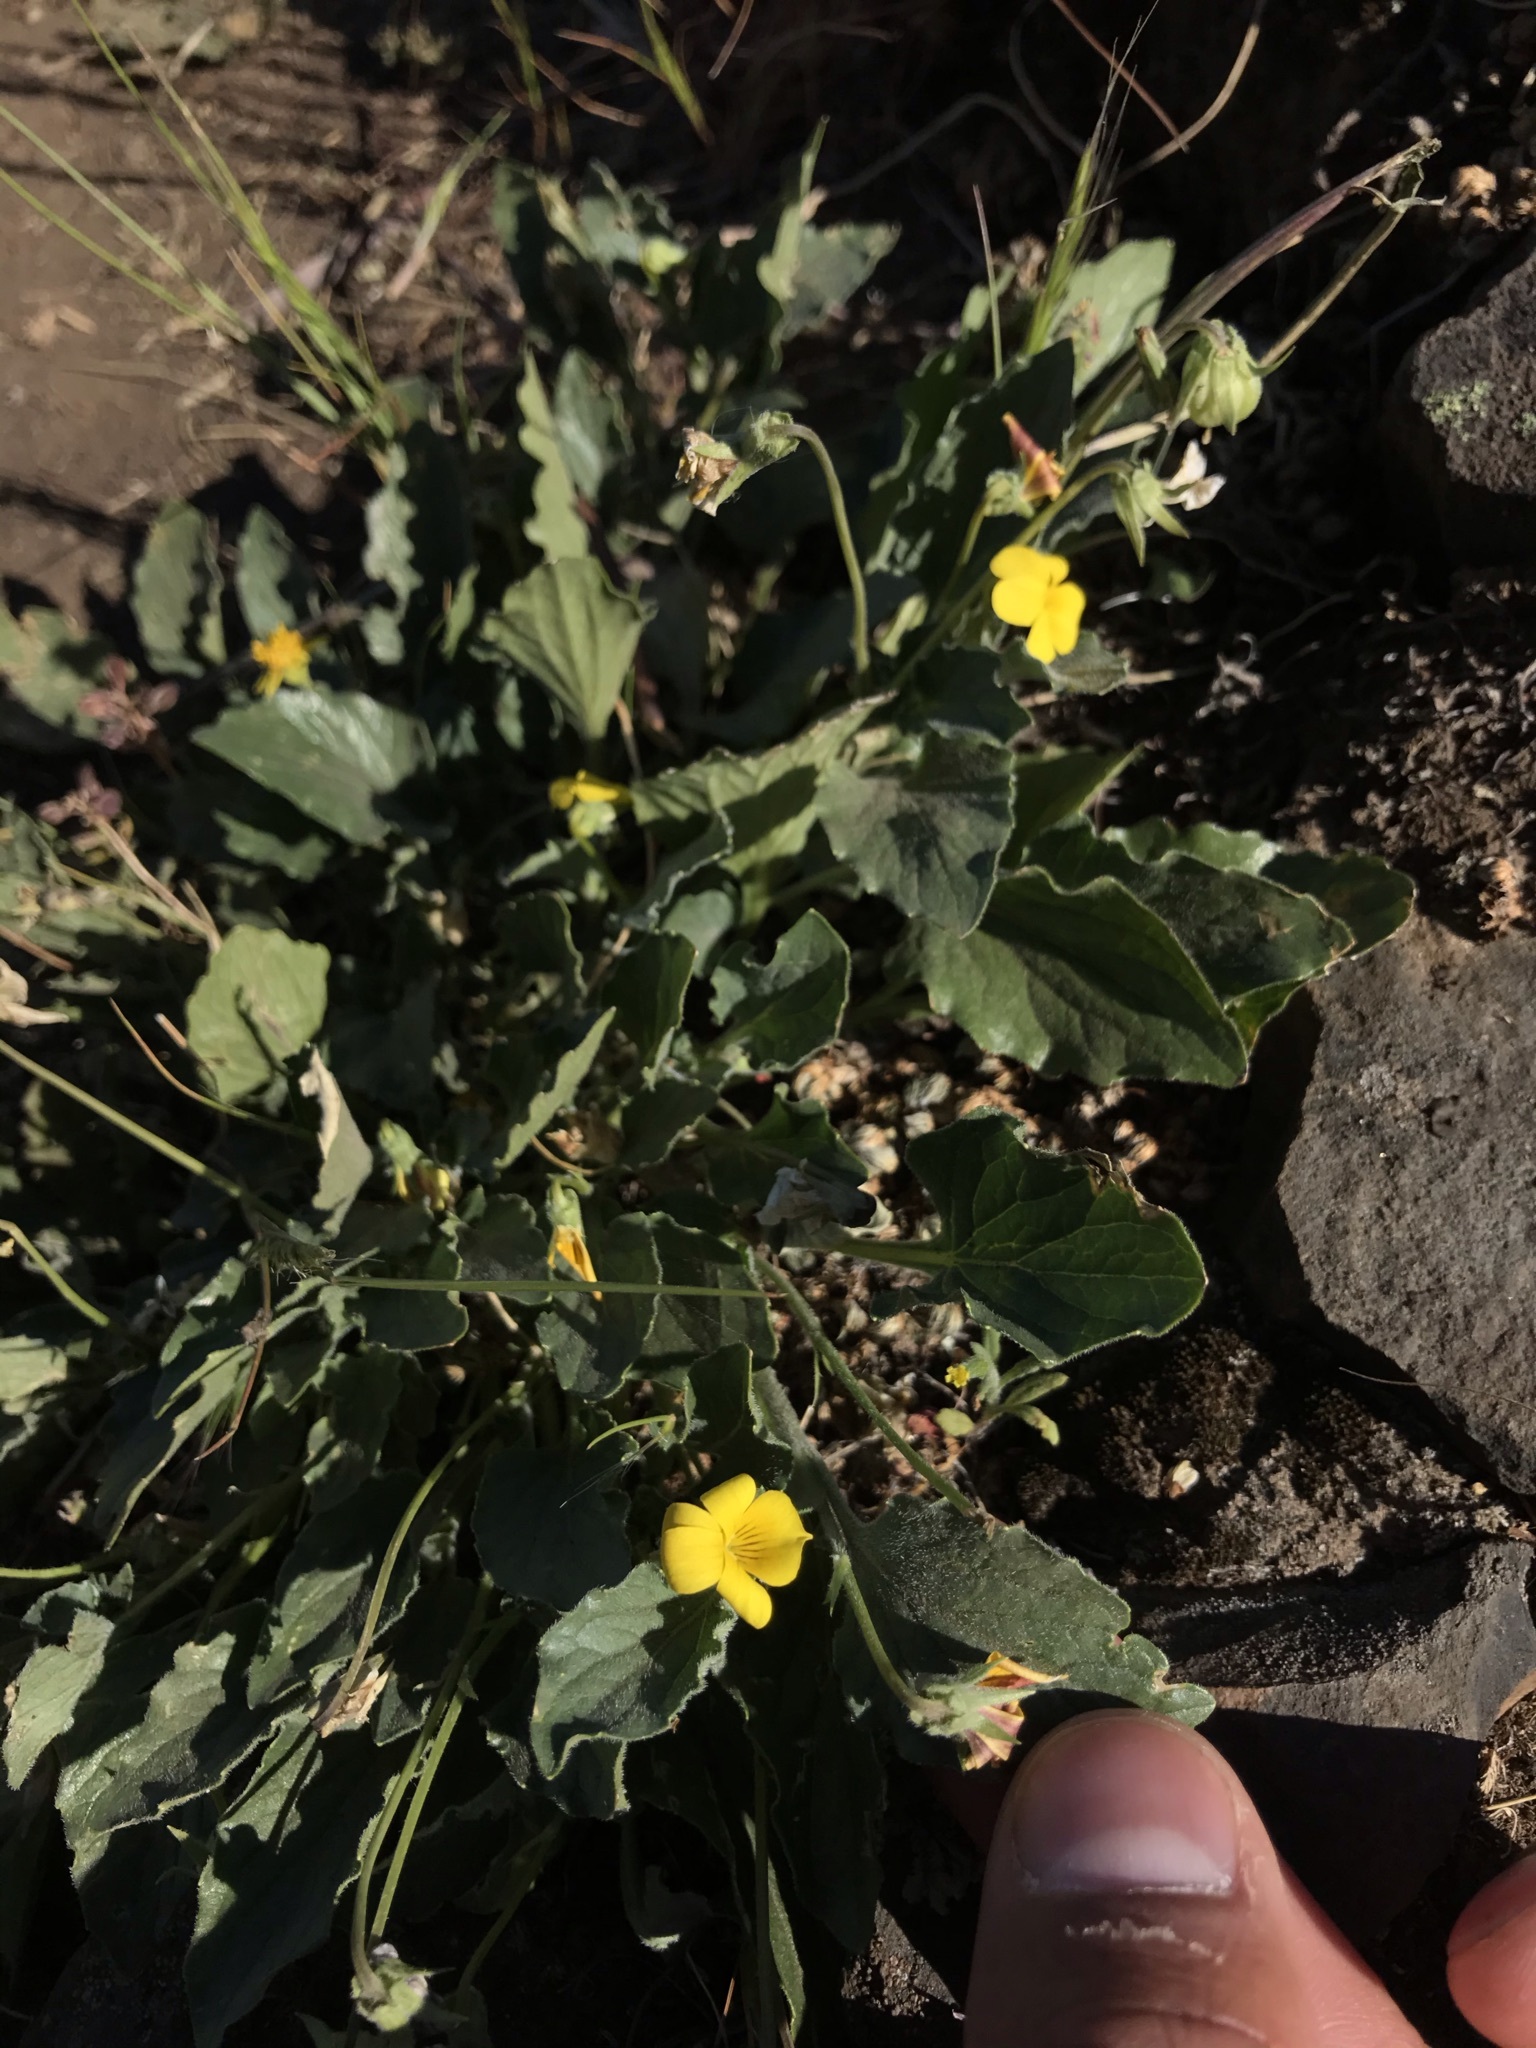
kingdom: Plantae
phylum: Tracheophyta
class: Magnoliopsida
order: Malpighiales
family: Violaceae
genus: Viola
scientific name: Viola quercetorum
